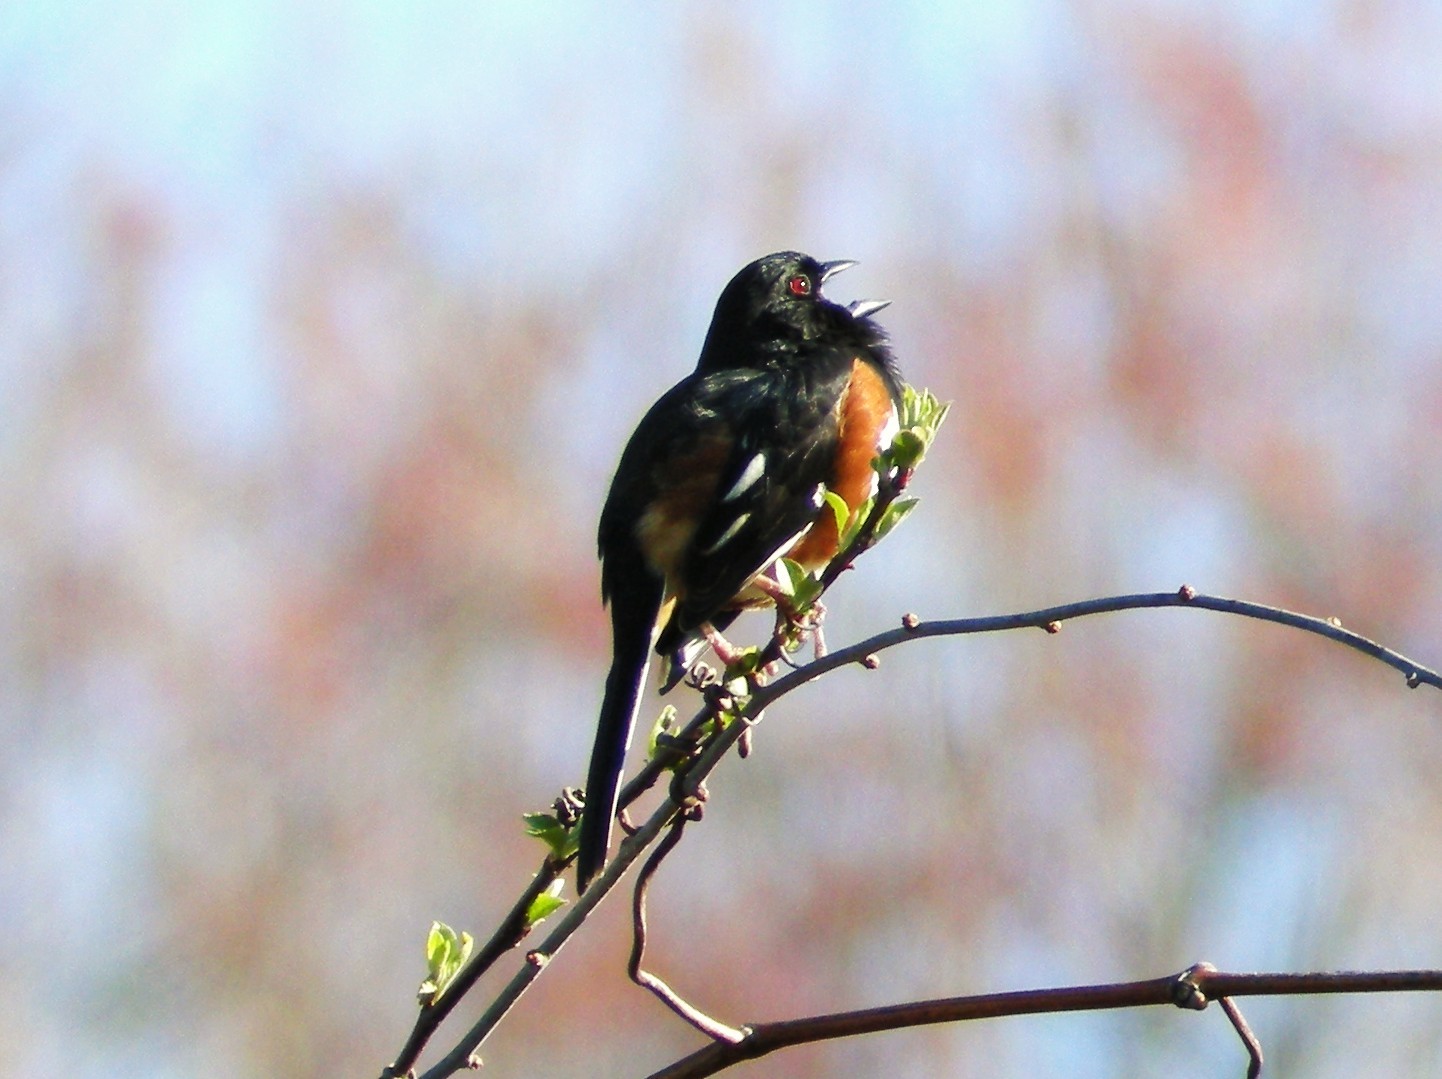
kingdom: Animalia
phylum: Chordata
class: Aves
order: Passeriformes
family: Passerellidae
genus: Pipilo
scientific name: Pipilo erythrophthalmus
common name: Eastern towhee
